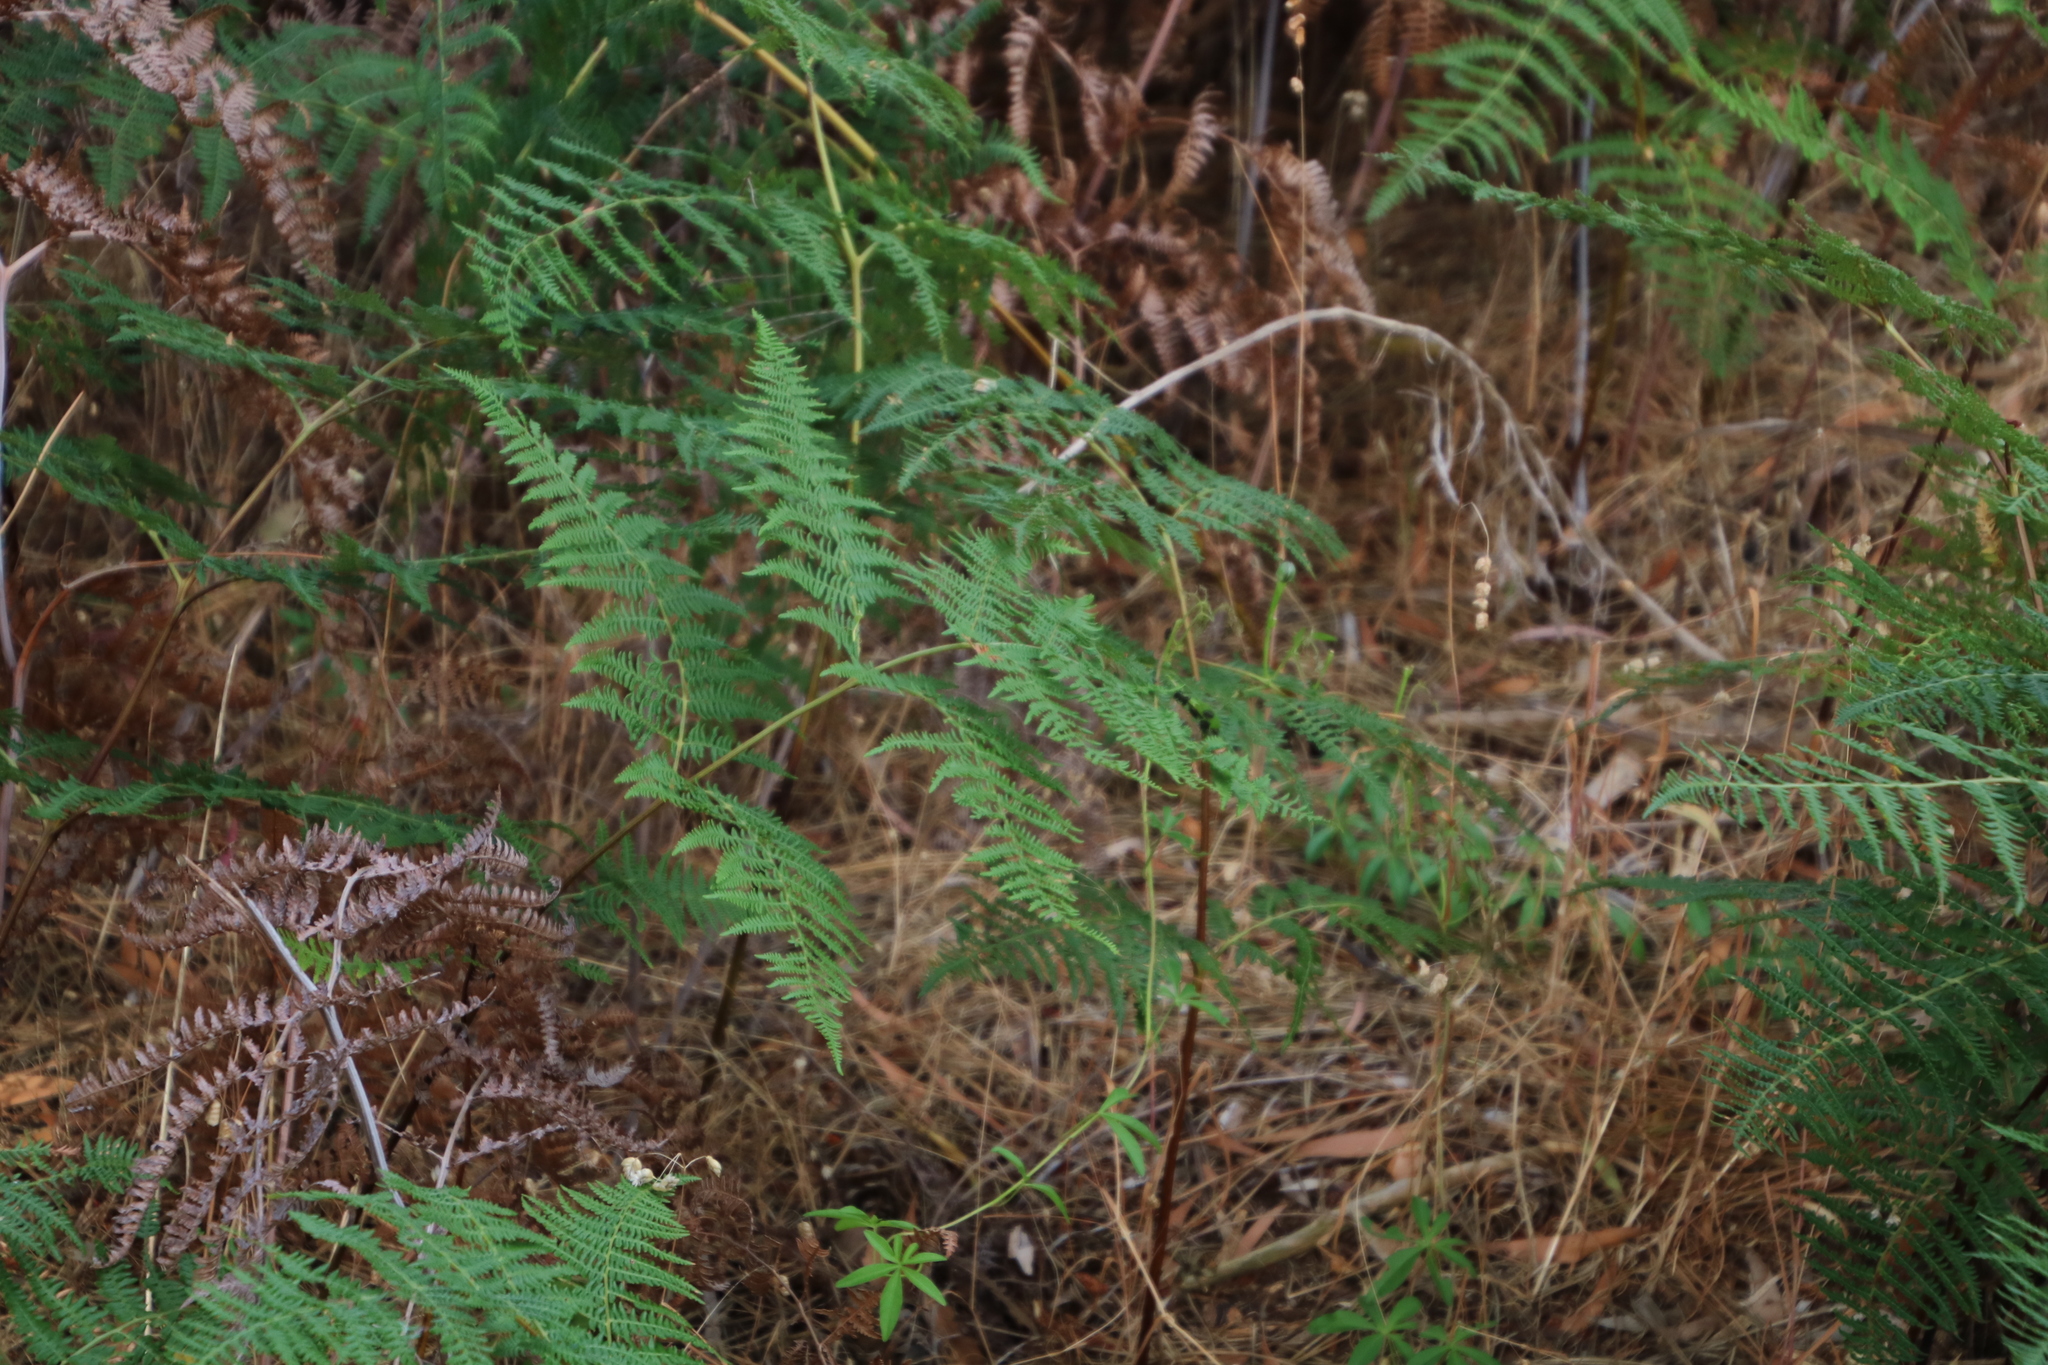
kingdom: Plantae
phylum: Tracheophyta
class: Polypodiopsida
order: Polypodiales
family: Dennstaedtiaceae
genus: Pteridium
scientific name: Pteridium aquilinum
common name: Bracken
